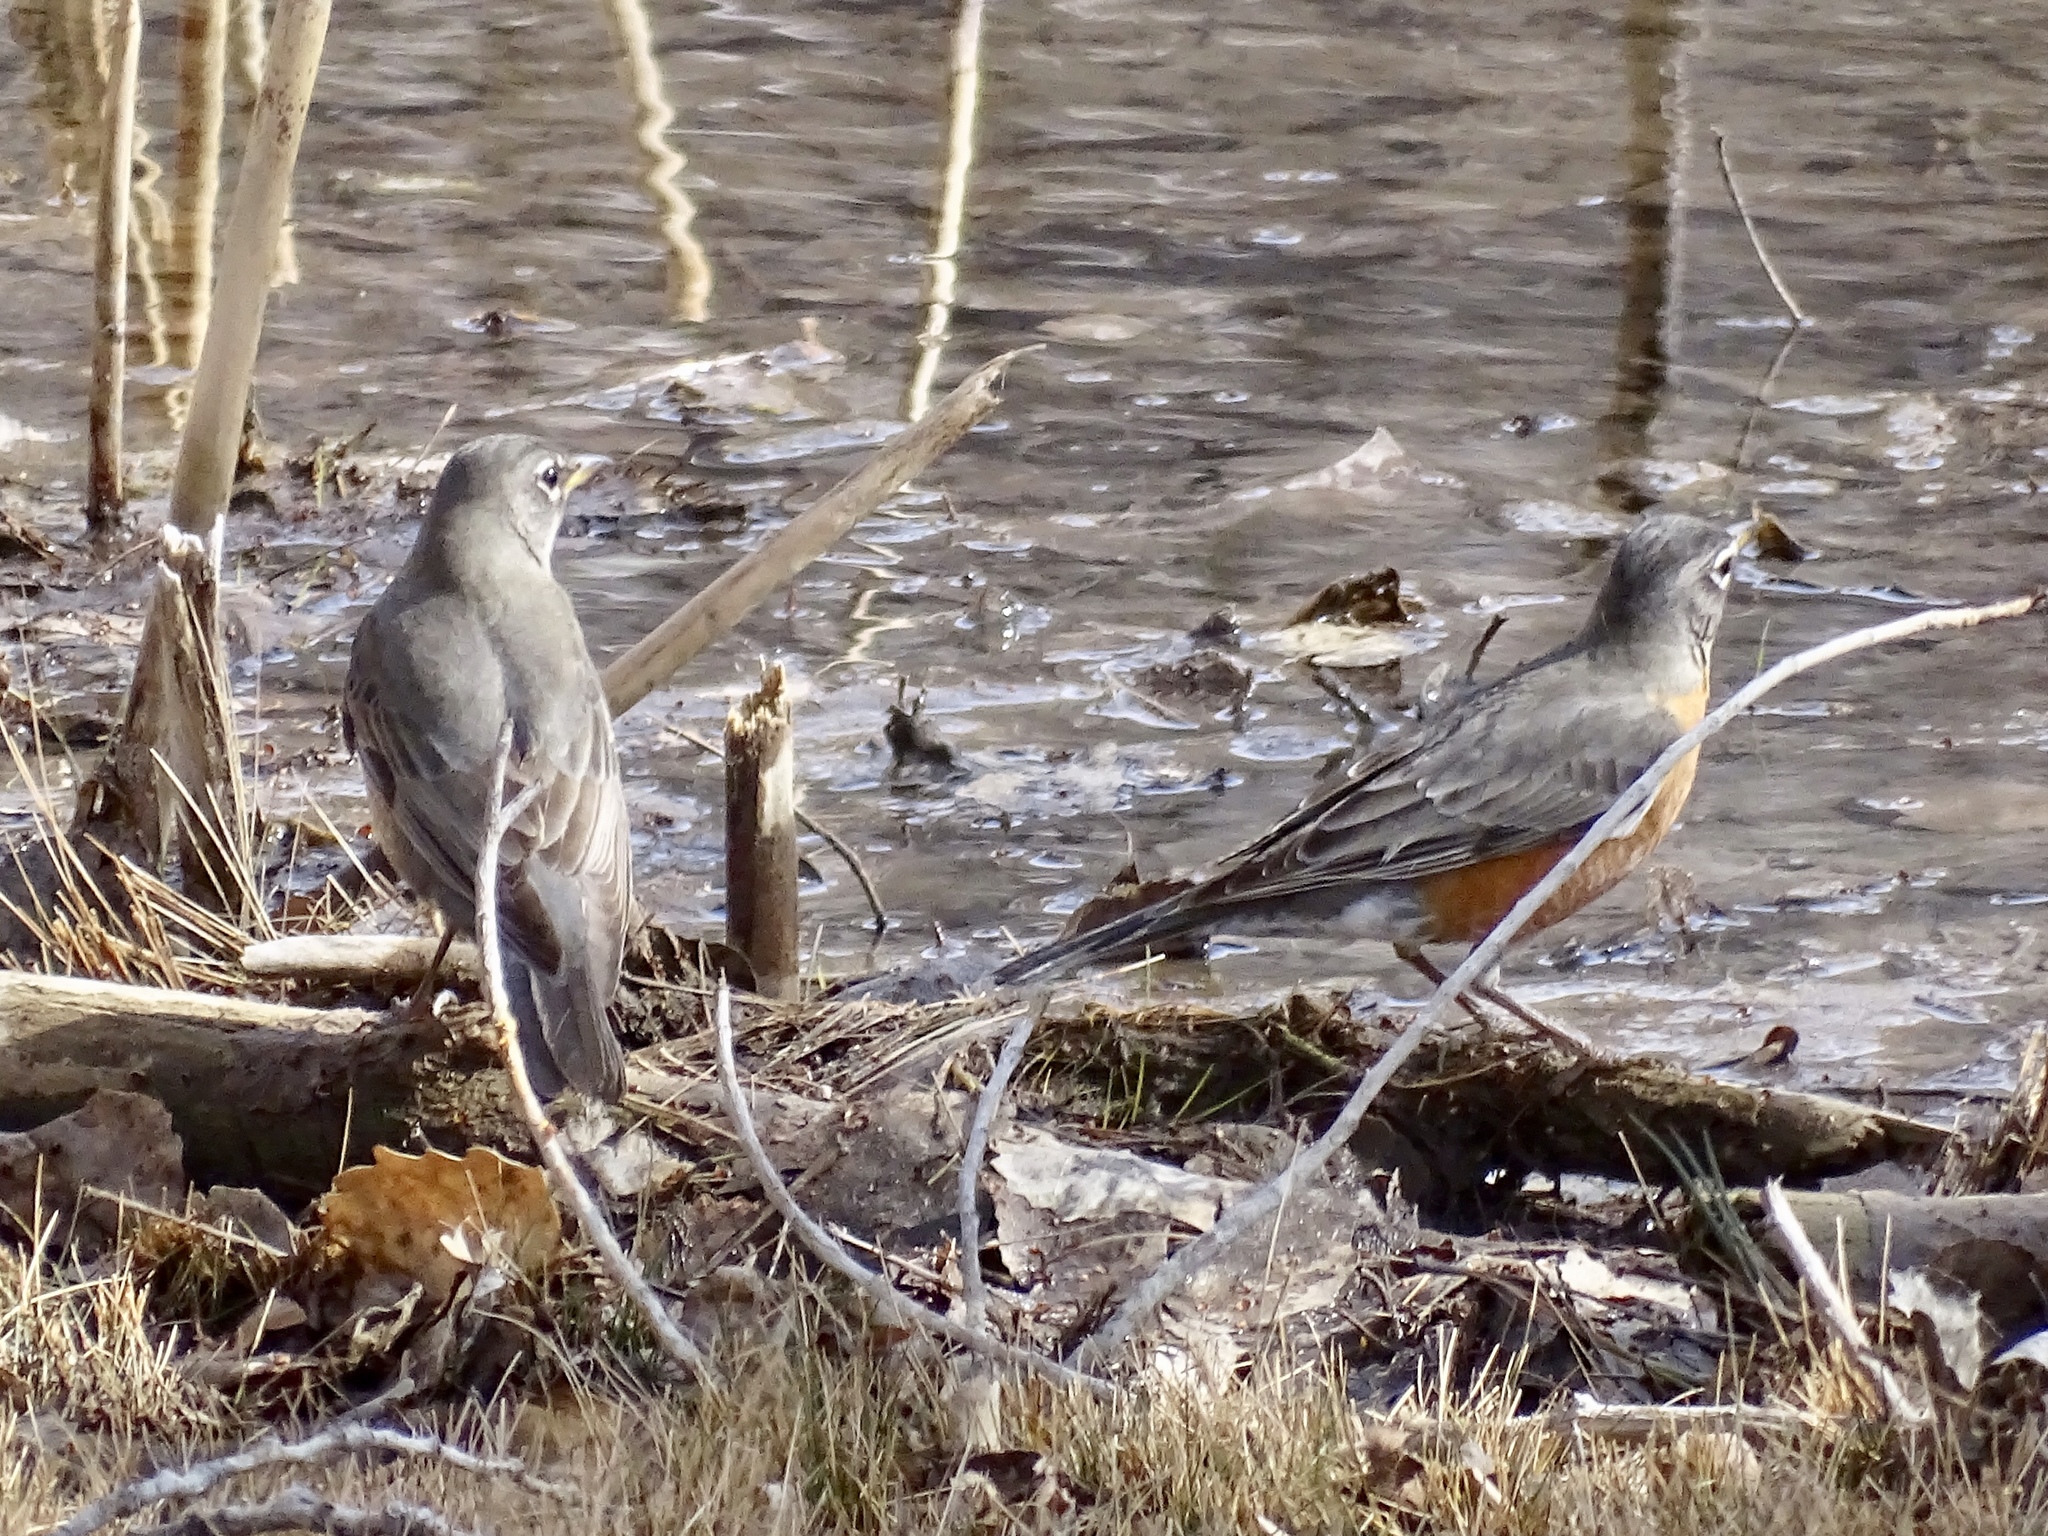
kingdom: Animalia
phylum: Chordata
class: Aves
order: Passeriformes
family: Turdidae
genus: Turdus
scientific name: Turdus migratorius
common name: American robin
